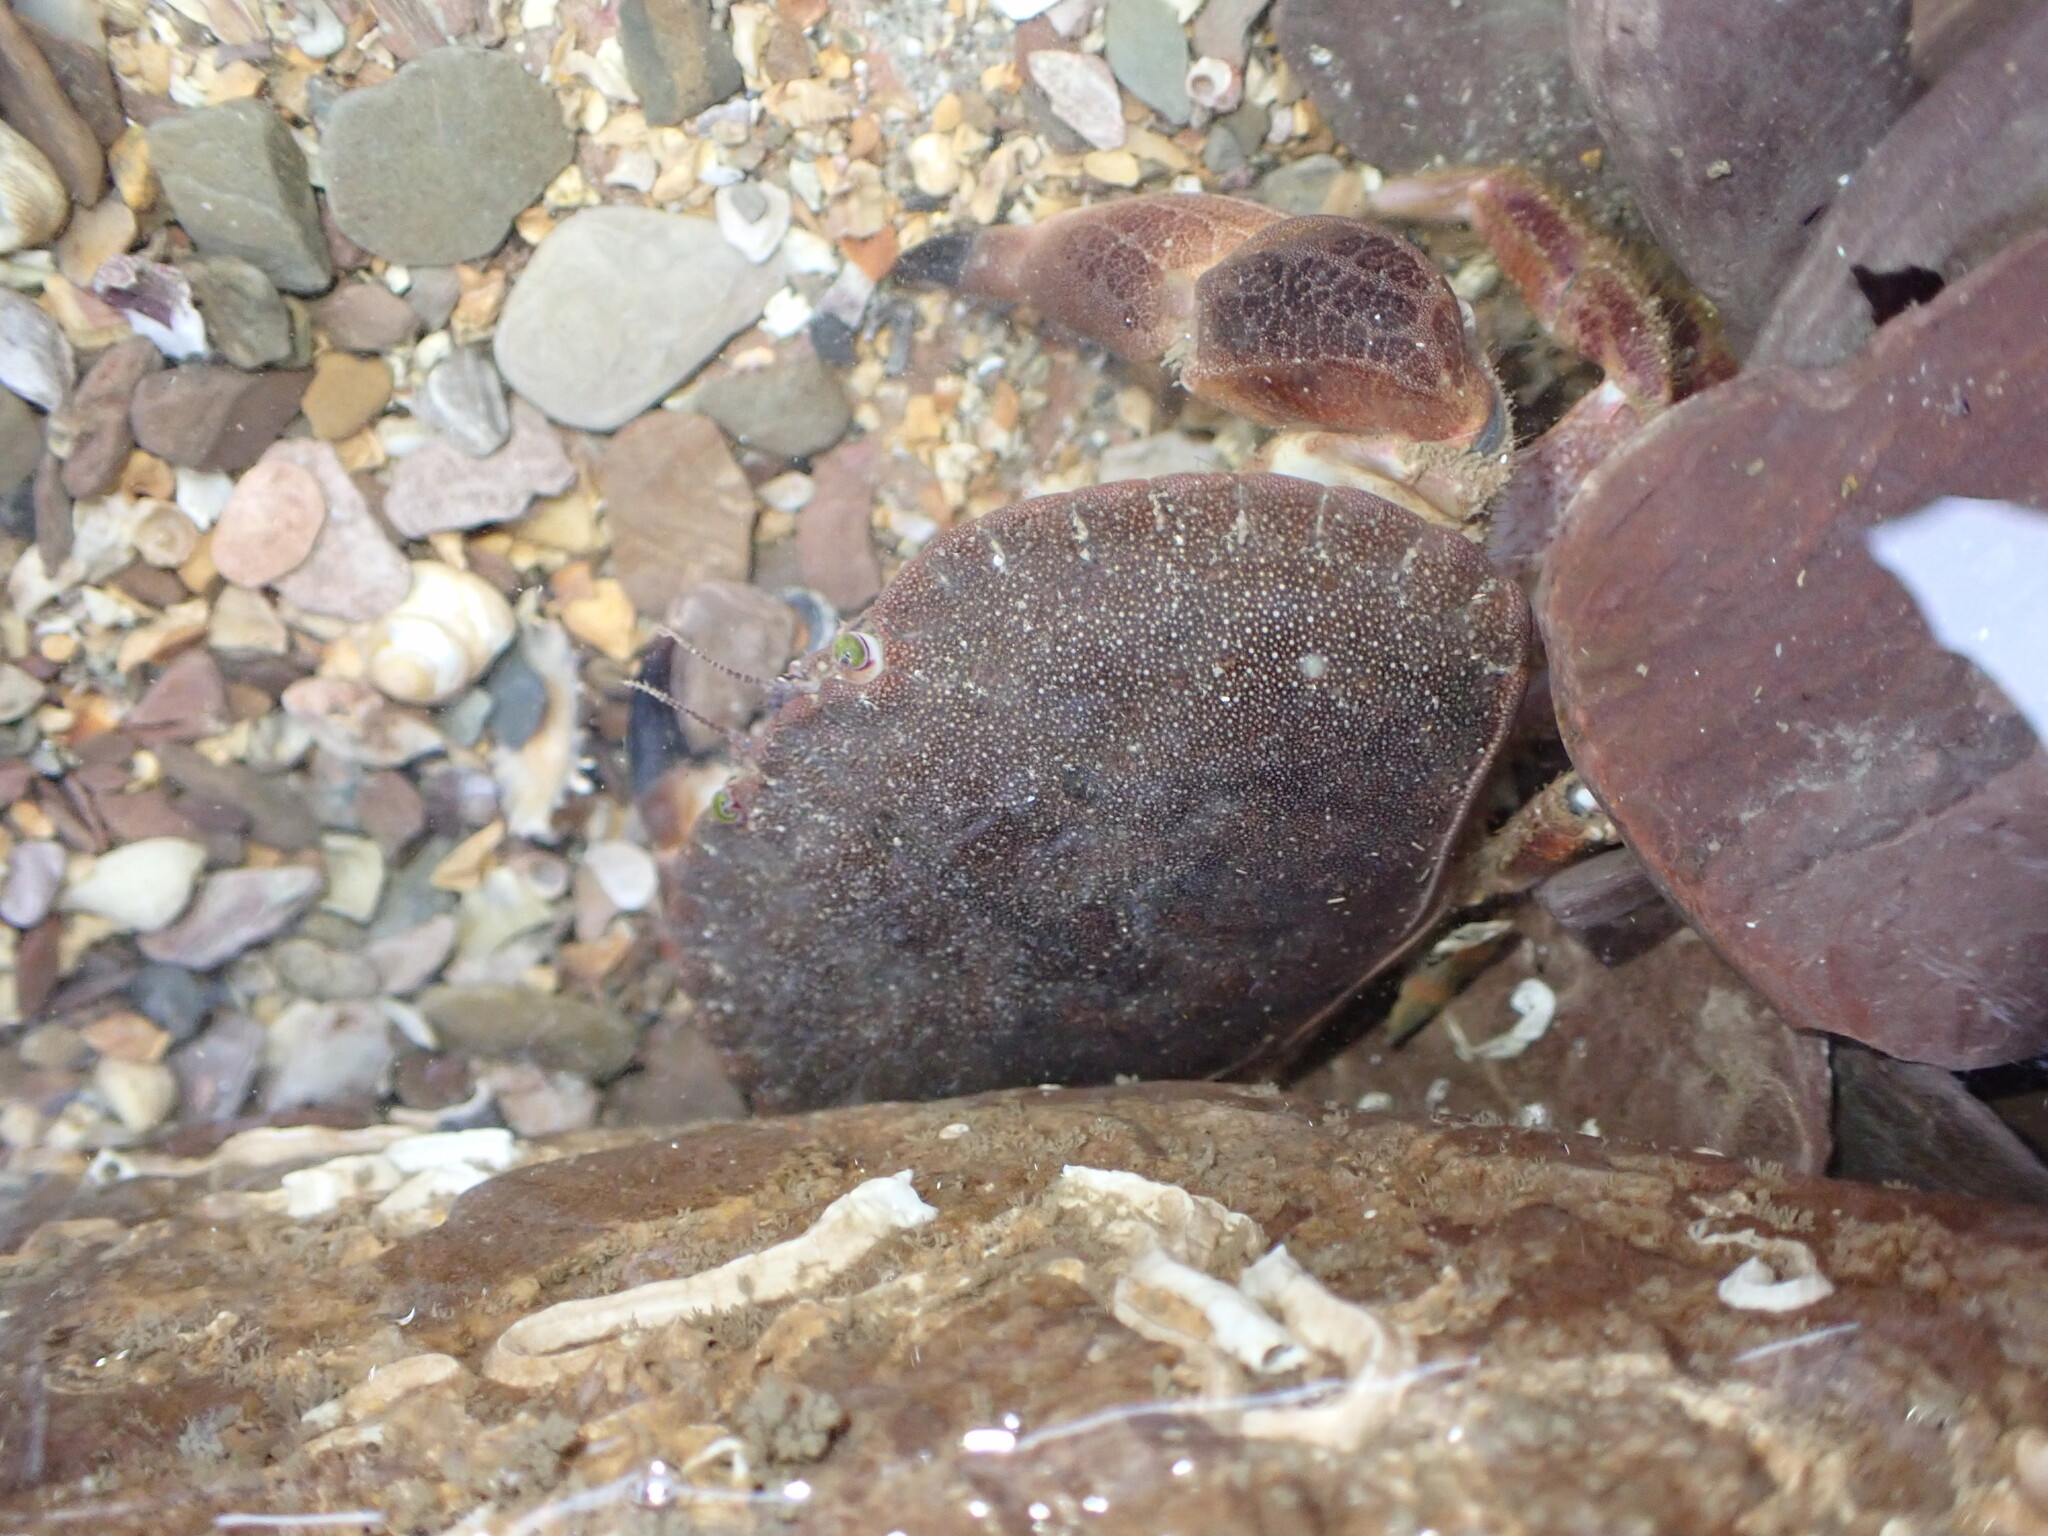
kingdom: Animalia
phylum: Arthropoda
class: Malacostraca
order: Decapoda
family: Cancridae
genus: Cancer
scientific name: Cancer pagurus
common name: Edible crab
